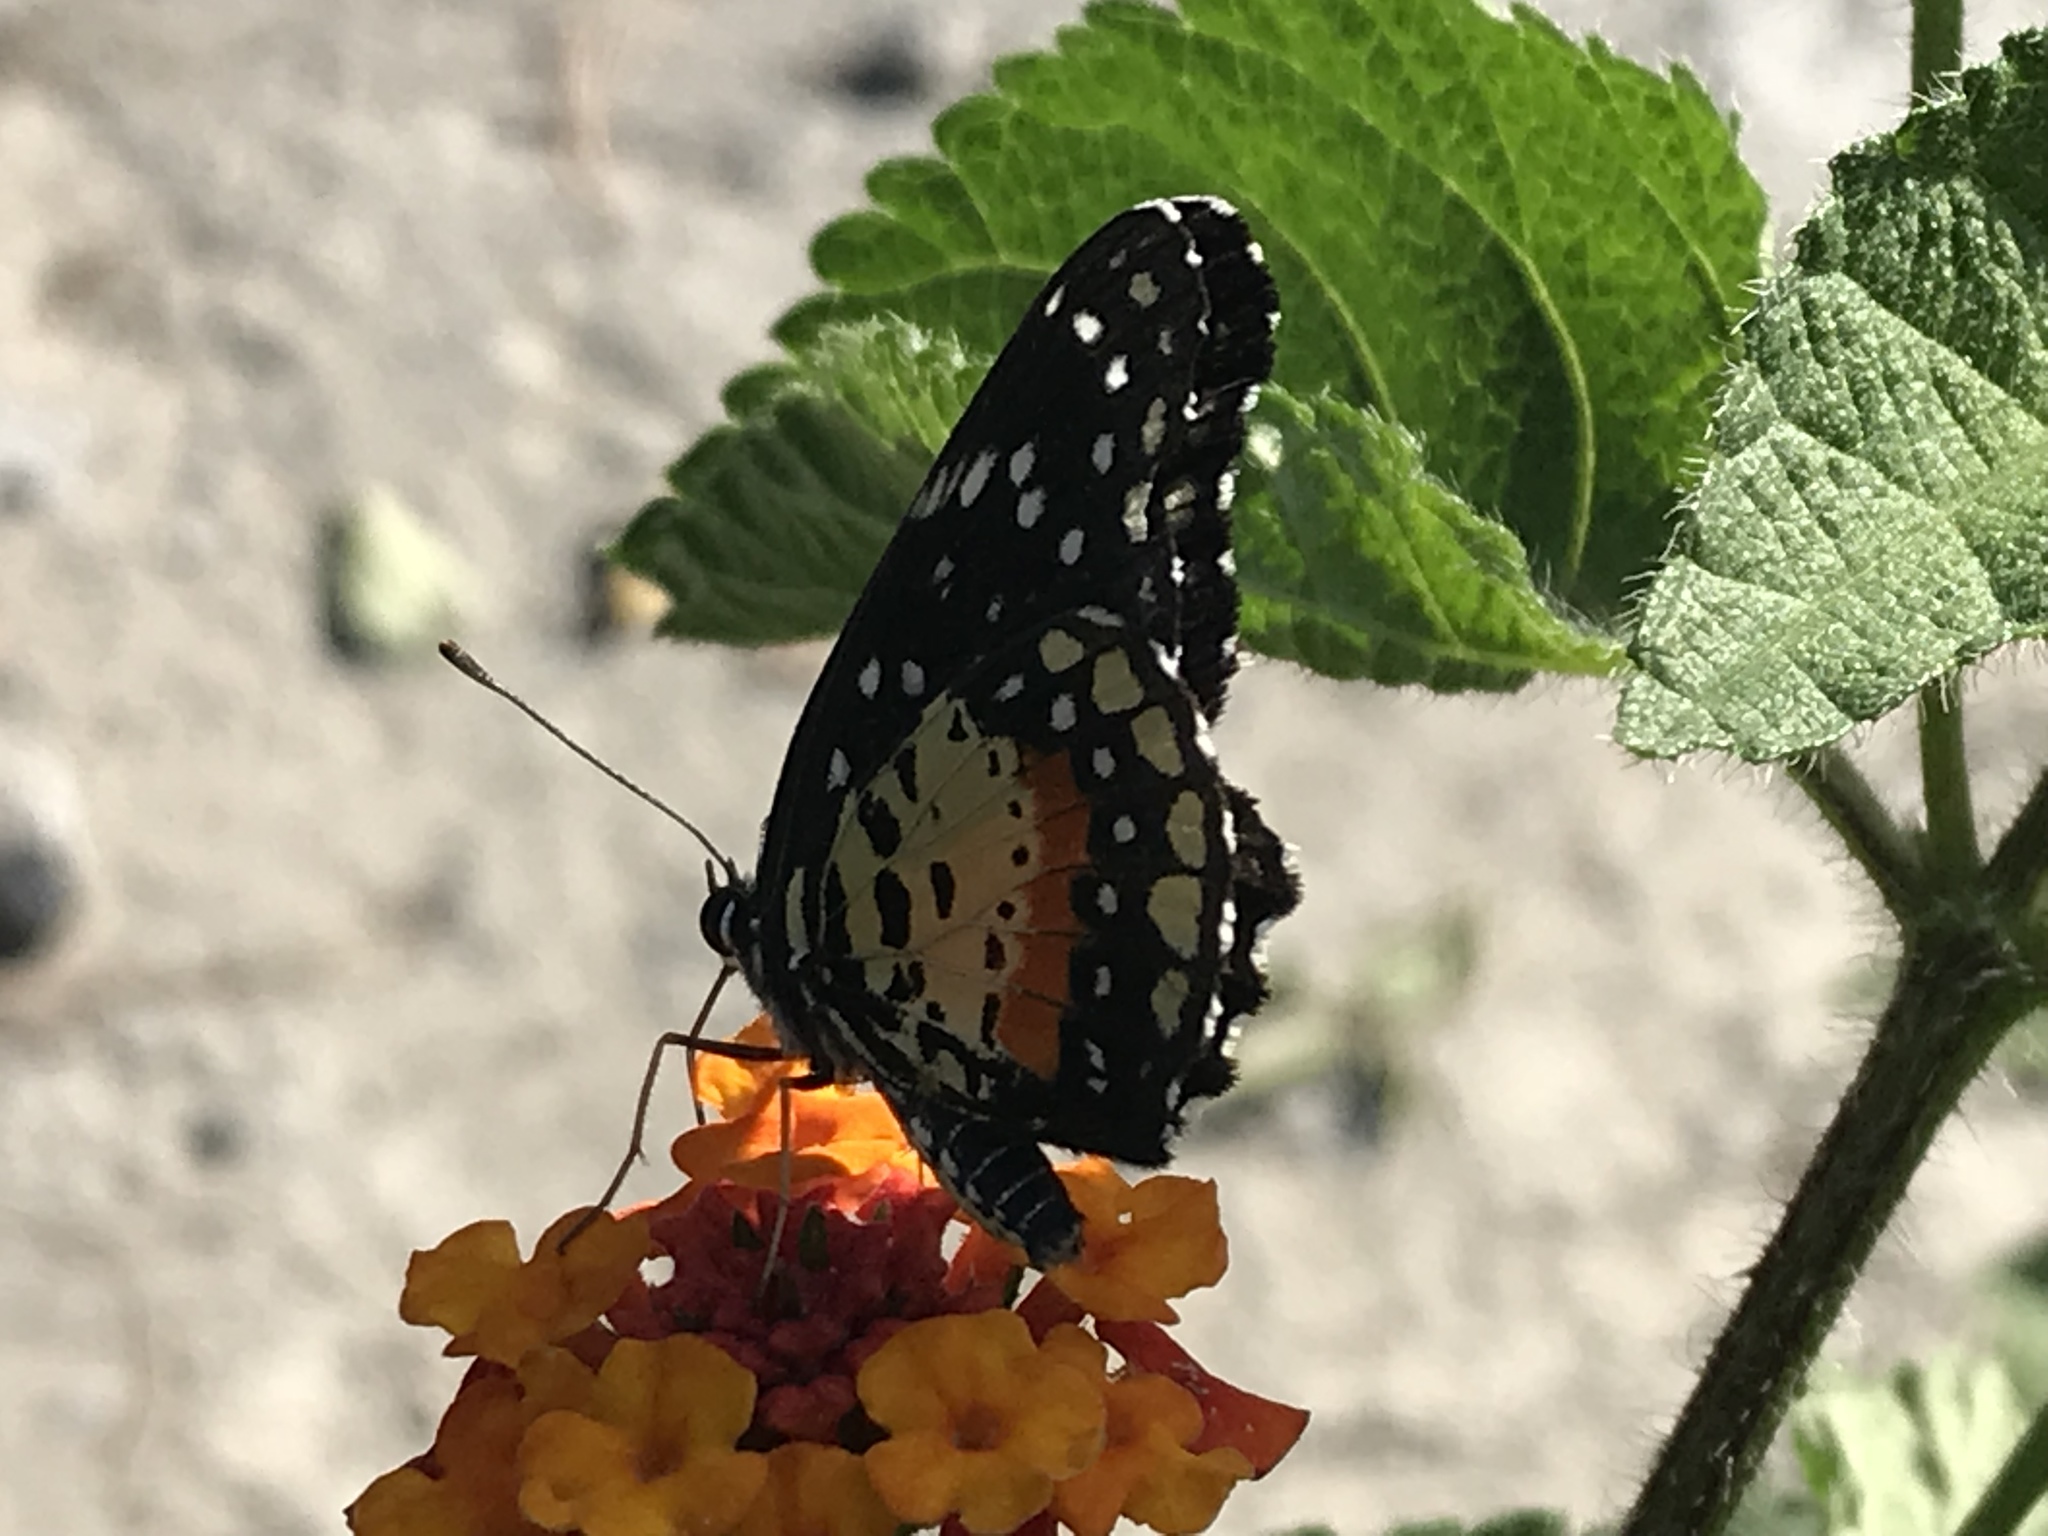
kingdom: Animalia
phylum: Arthropoda
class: Insecta
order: Lepidoptera
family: Nymphalidae
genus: Chlosyne
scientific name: Chlosyne janais
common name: Crimson patch
